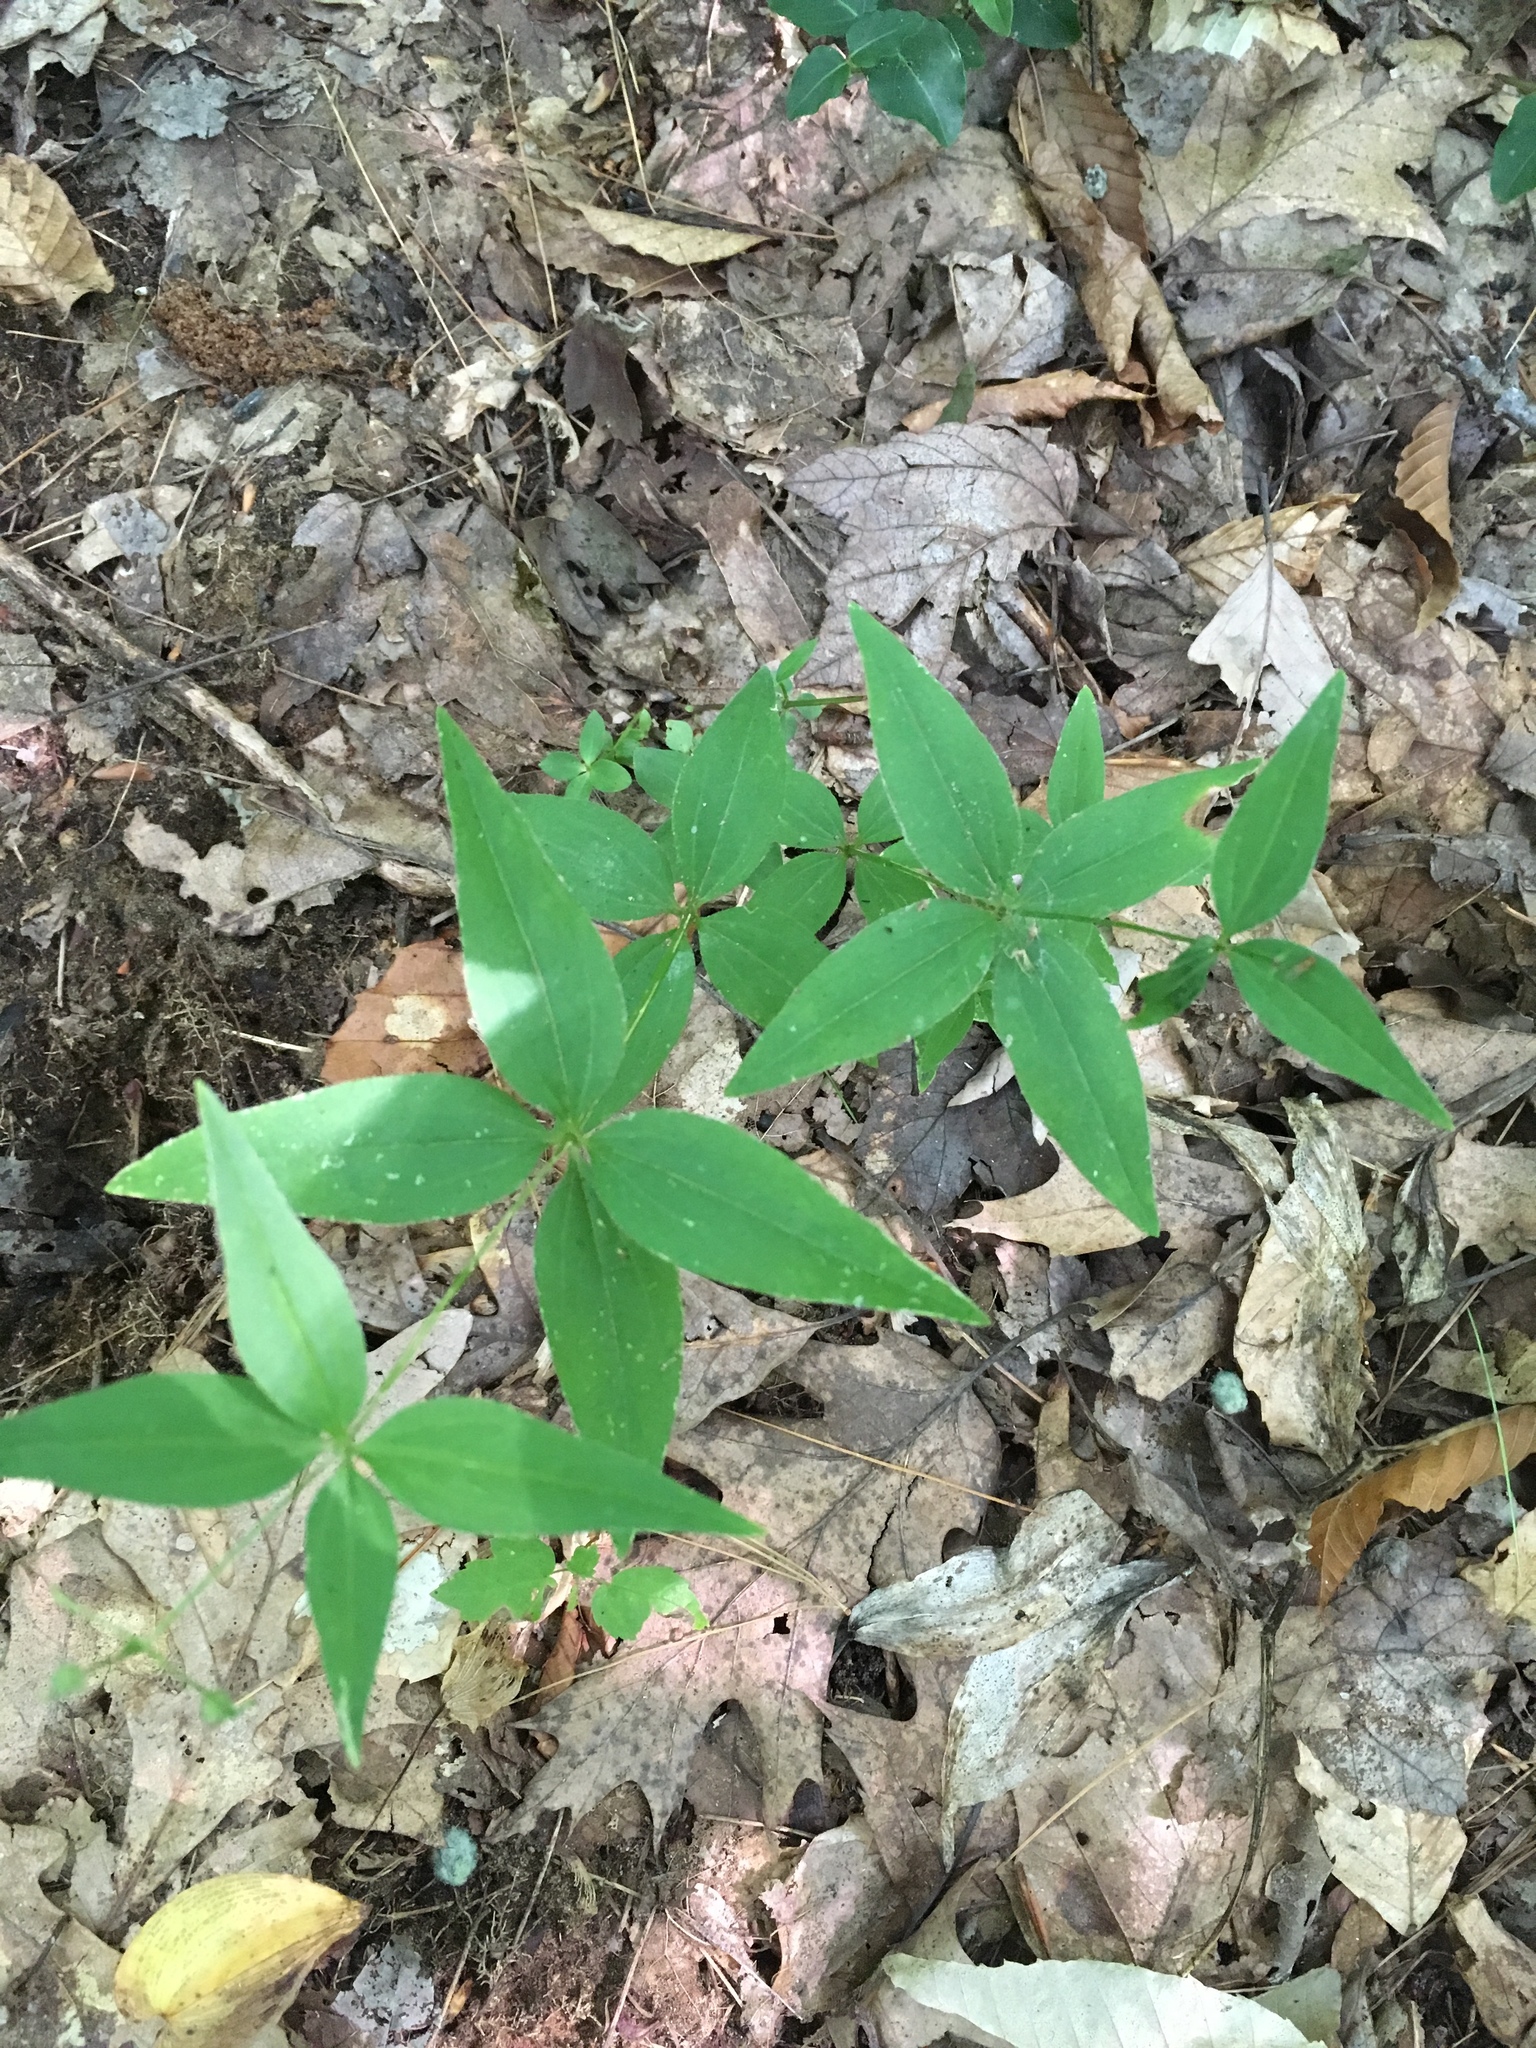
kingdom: Plantae
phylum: Tracheophyta
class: Magnoliopsida
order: Gentianales
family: Rubiaceae
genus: Galium
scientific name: Galium lanceolatum
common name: Lance-leaved wild licorice
